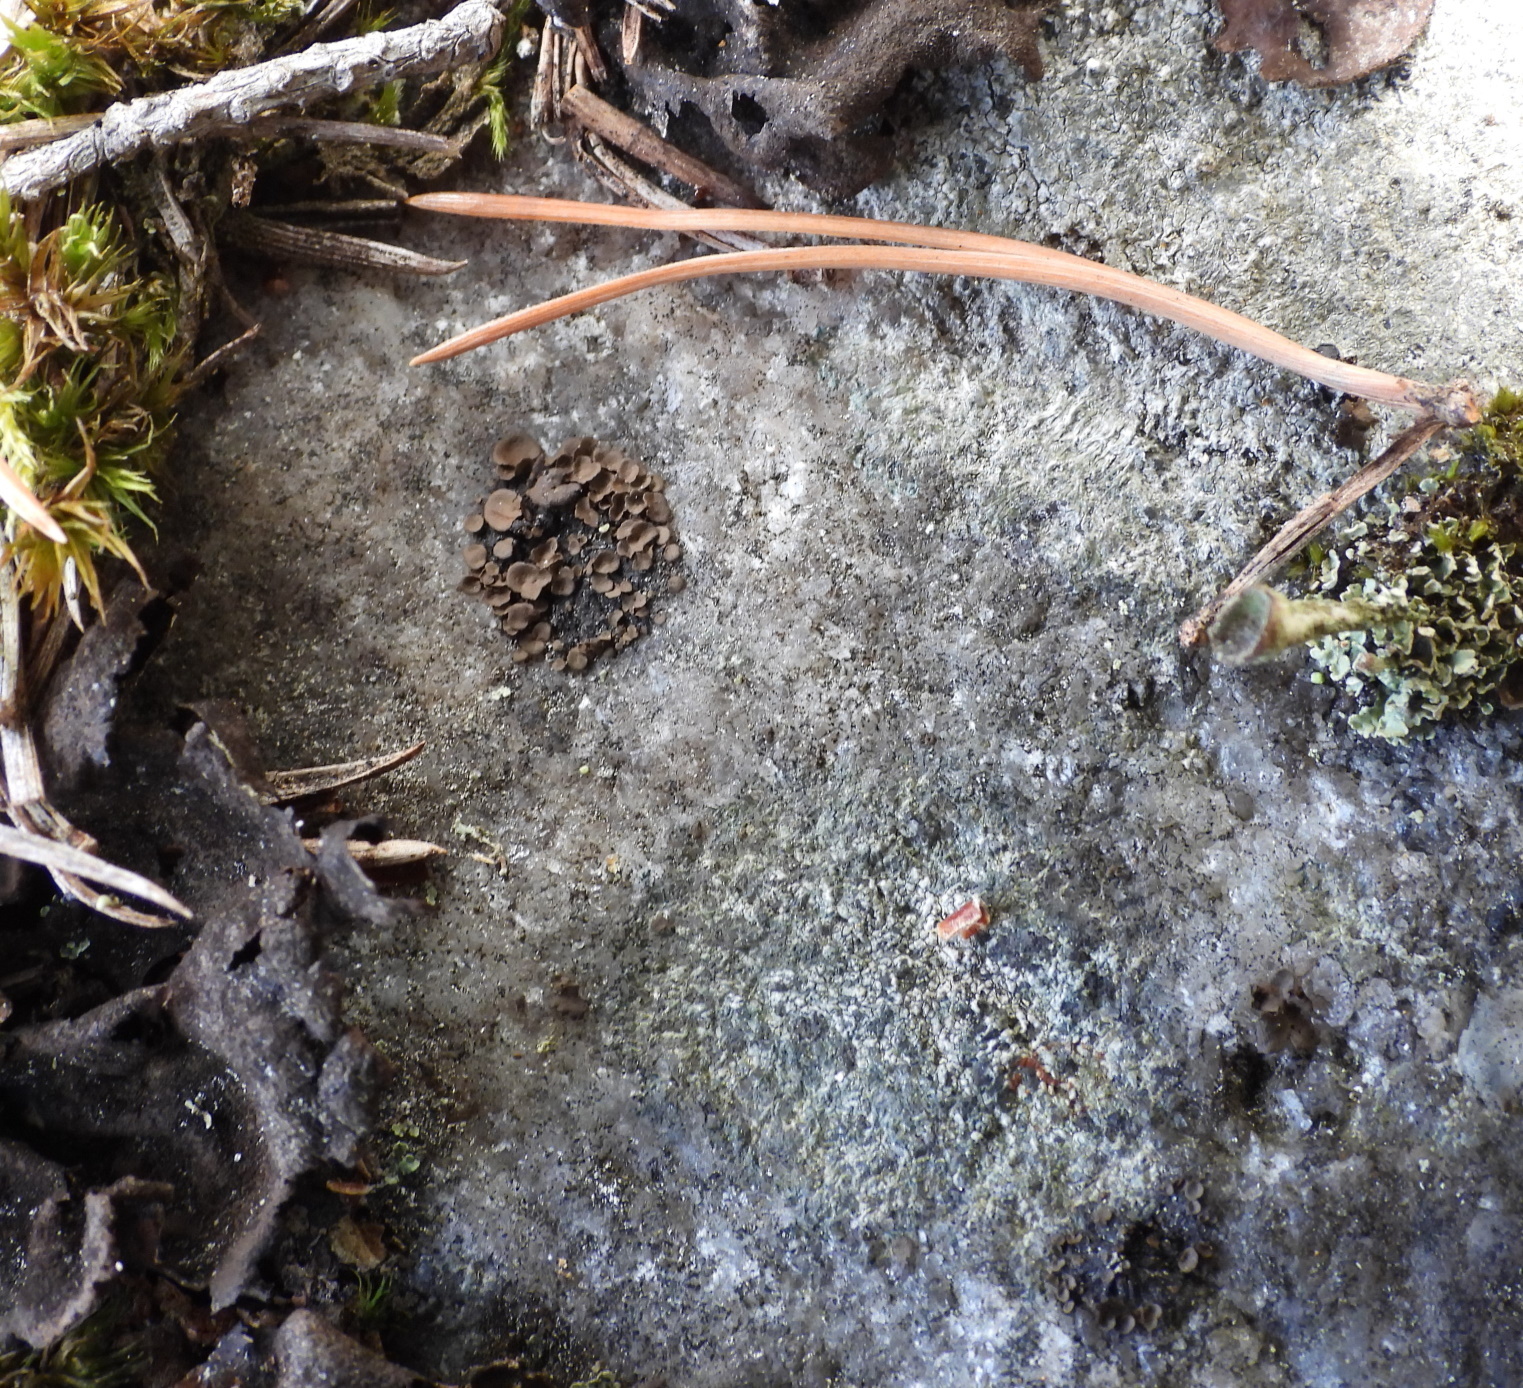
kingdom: Fungi
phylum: Ascomycota
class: Eurotiomycetes
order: Verrucariales
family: Verrucariaceae
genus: Dermatocarpon
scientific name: Dermatocarpon luridum
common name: Brook stippleback lichen
